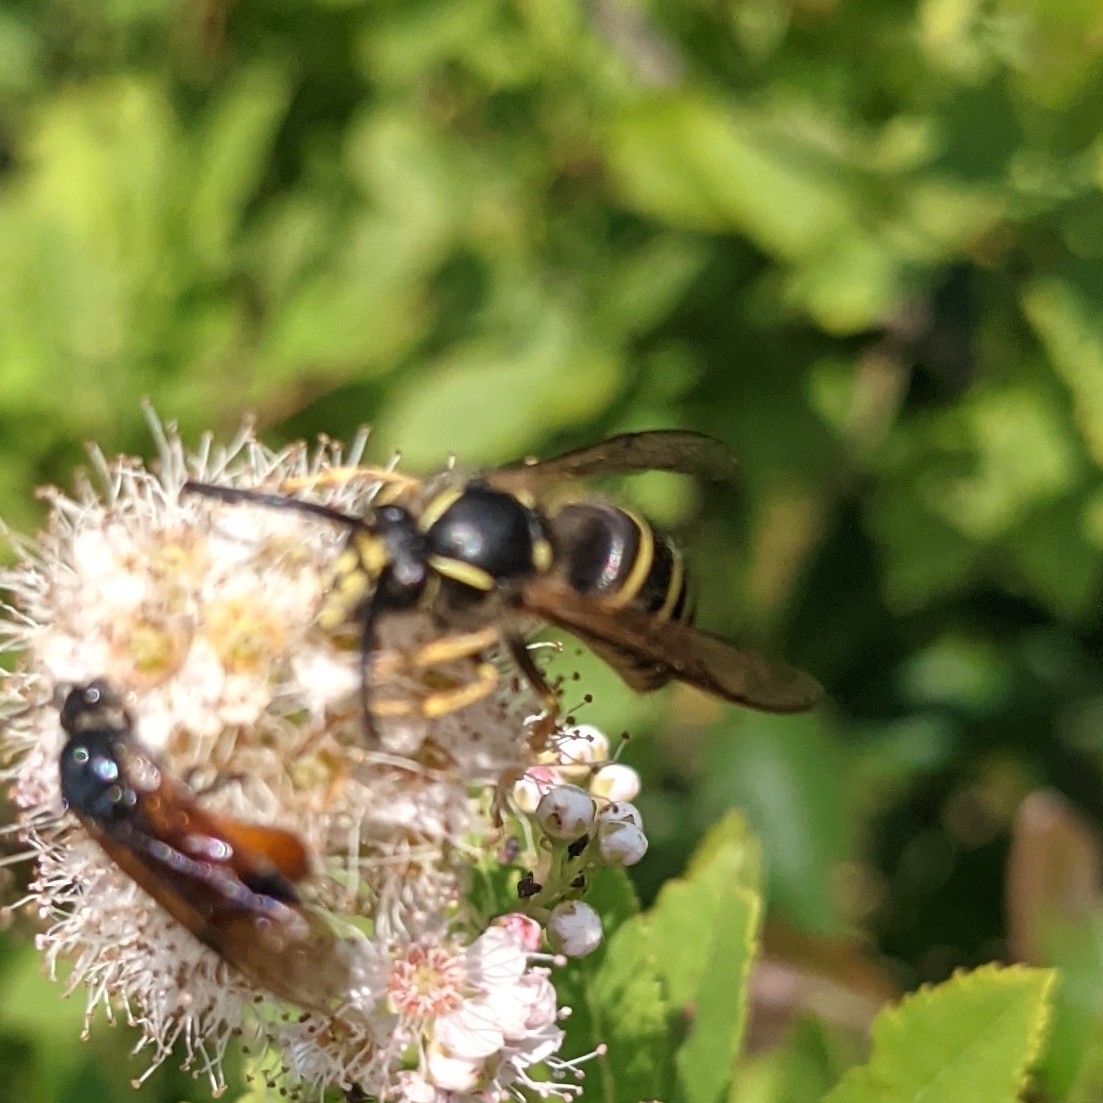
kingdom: Animalia
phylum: Arthropoda
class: Insecta
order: Hymenoptera
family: Vespidae
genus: Dolichovespula
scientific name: Dolichovespula norvegicoides
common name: Northern aerial yellowjacket
